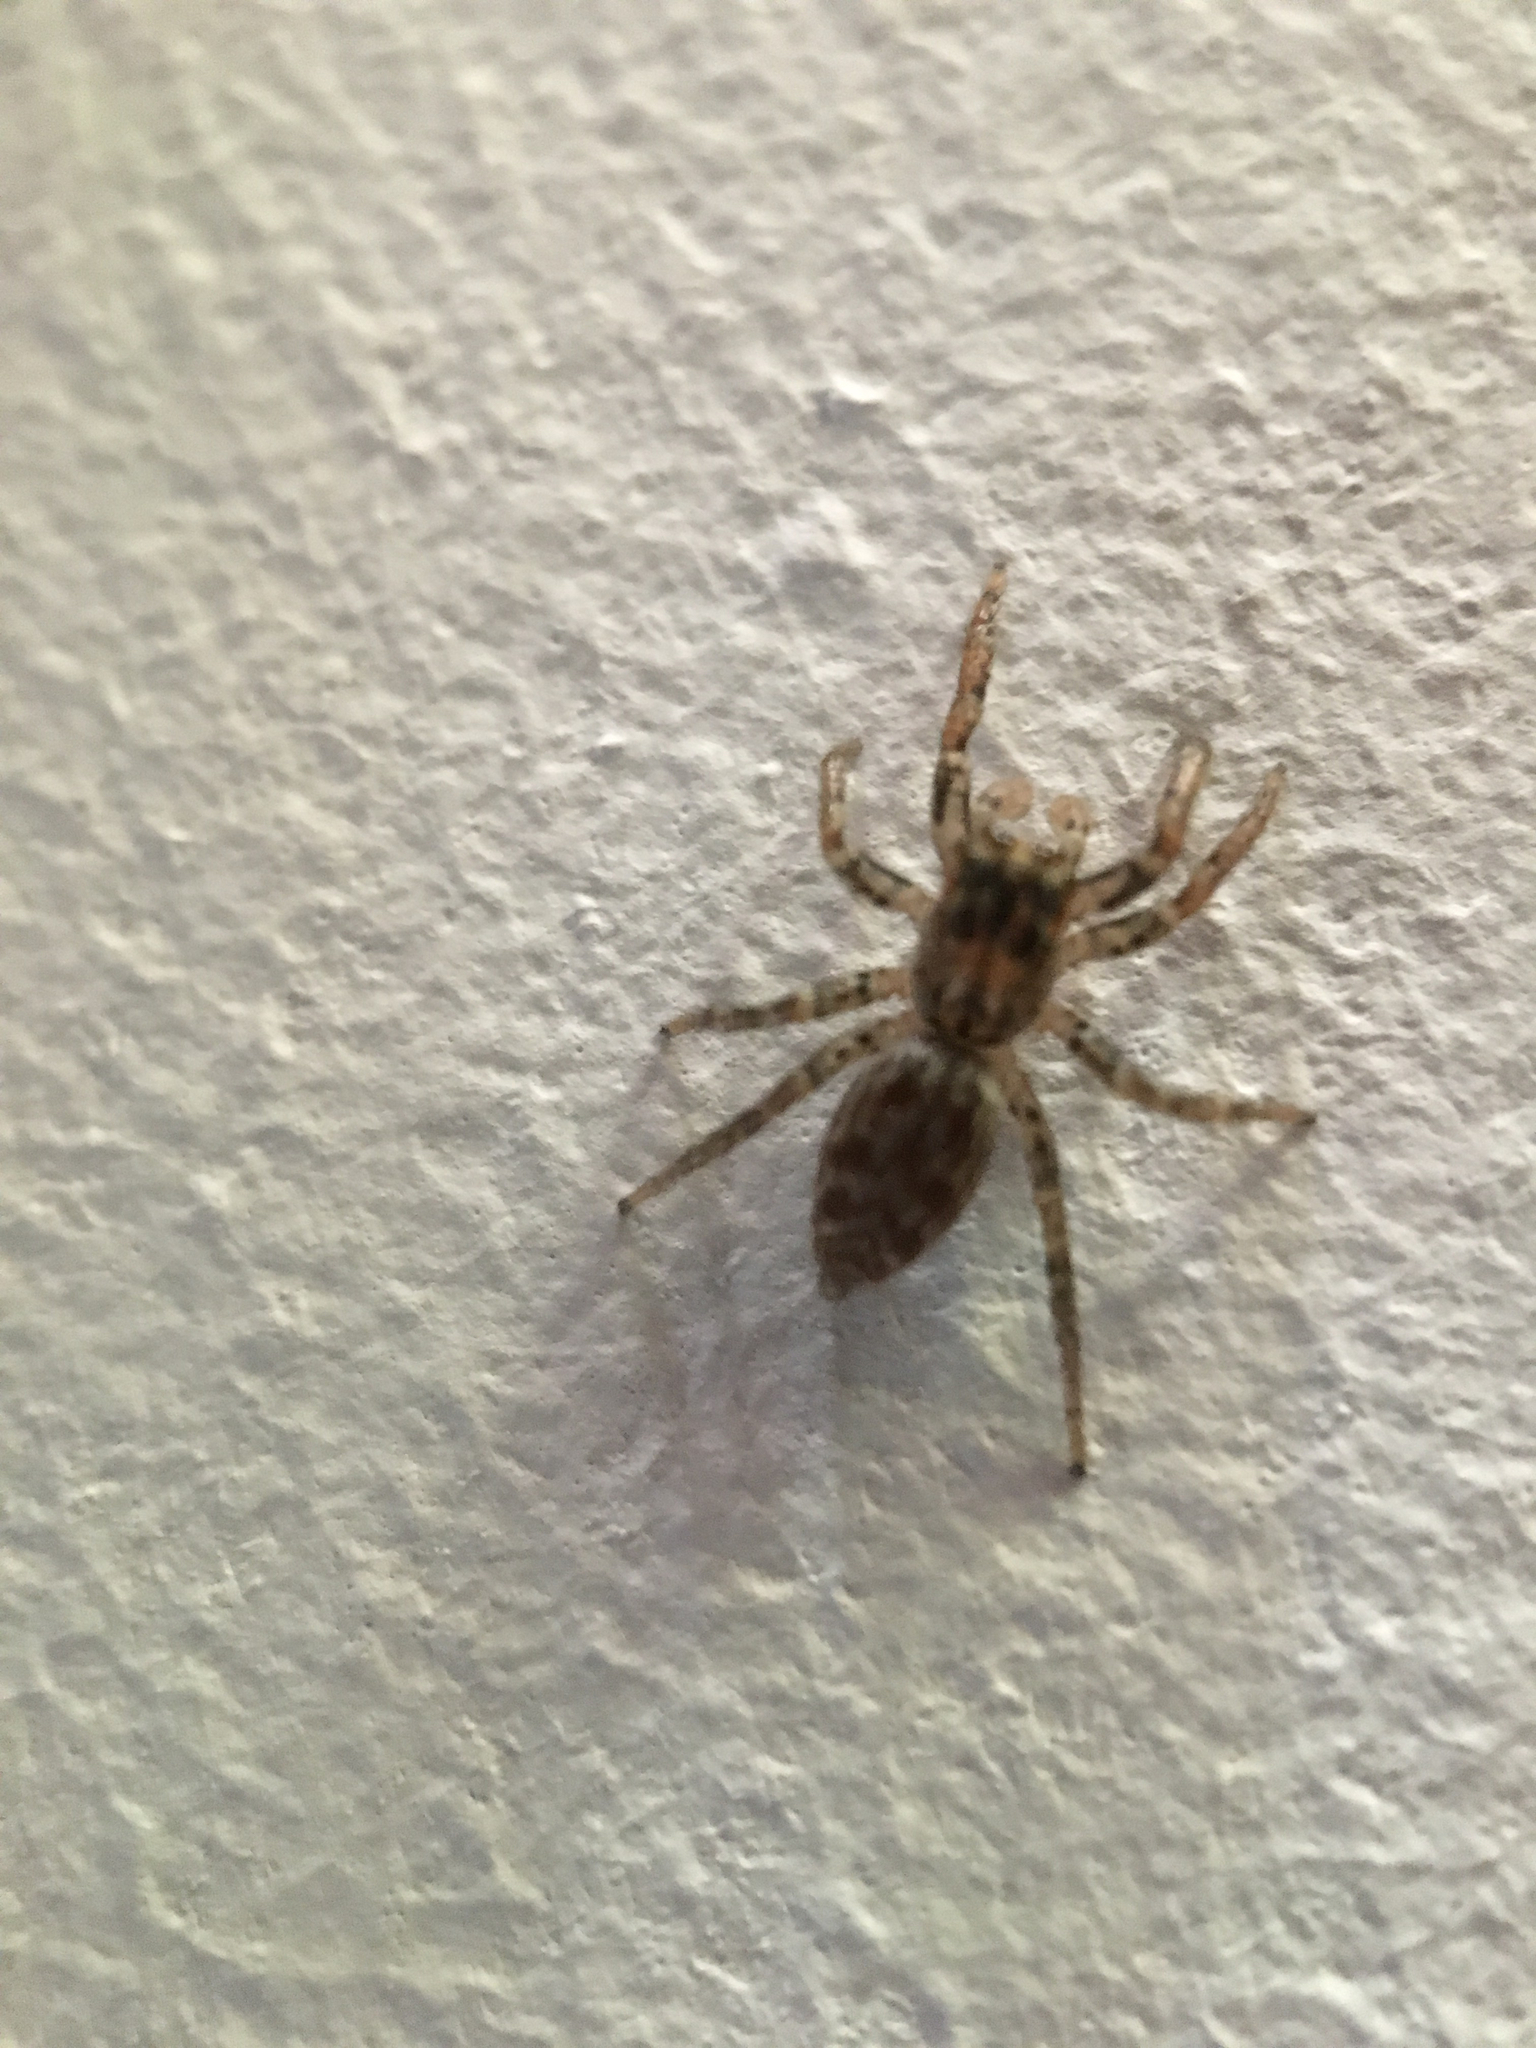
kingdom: Animalia
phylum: Arthropoda
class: Arachnida
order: Araneae
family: Salticidae
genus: Maevia
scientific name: Maevia inclemens
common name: Dimorphic jumper
